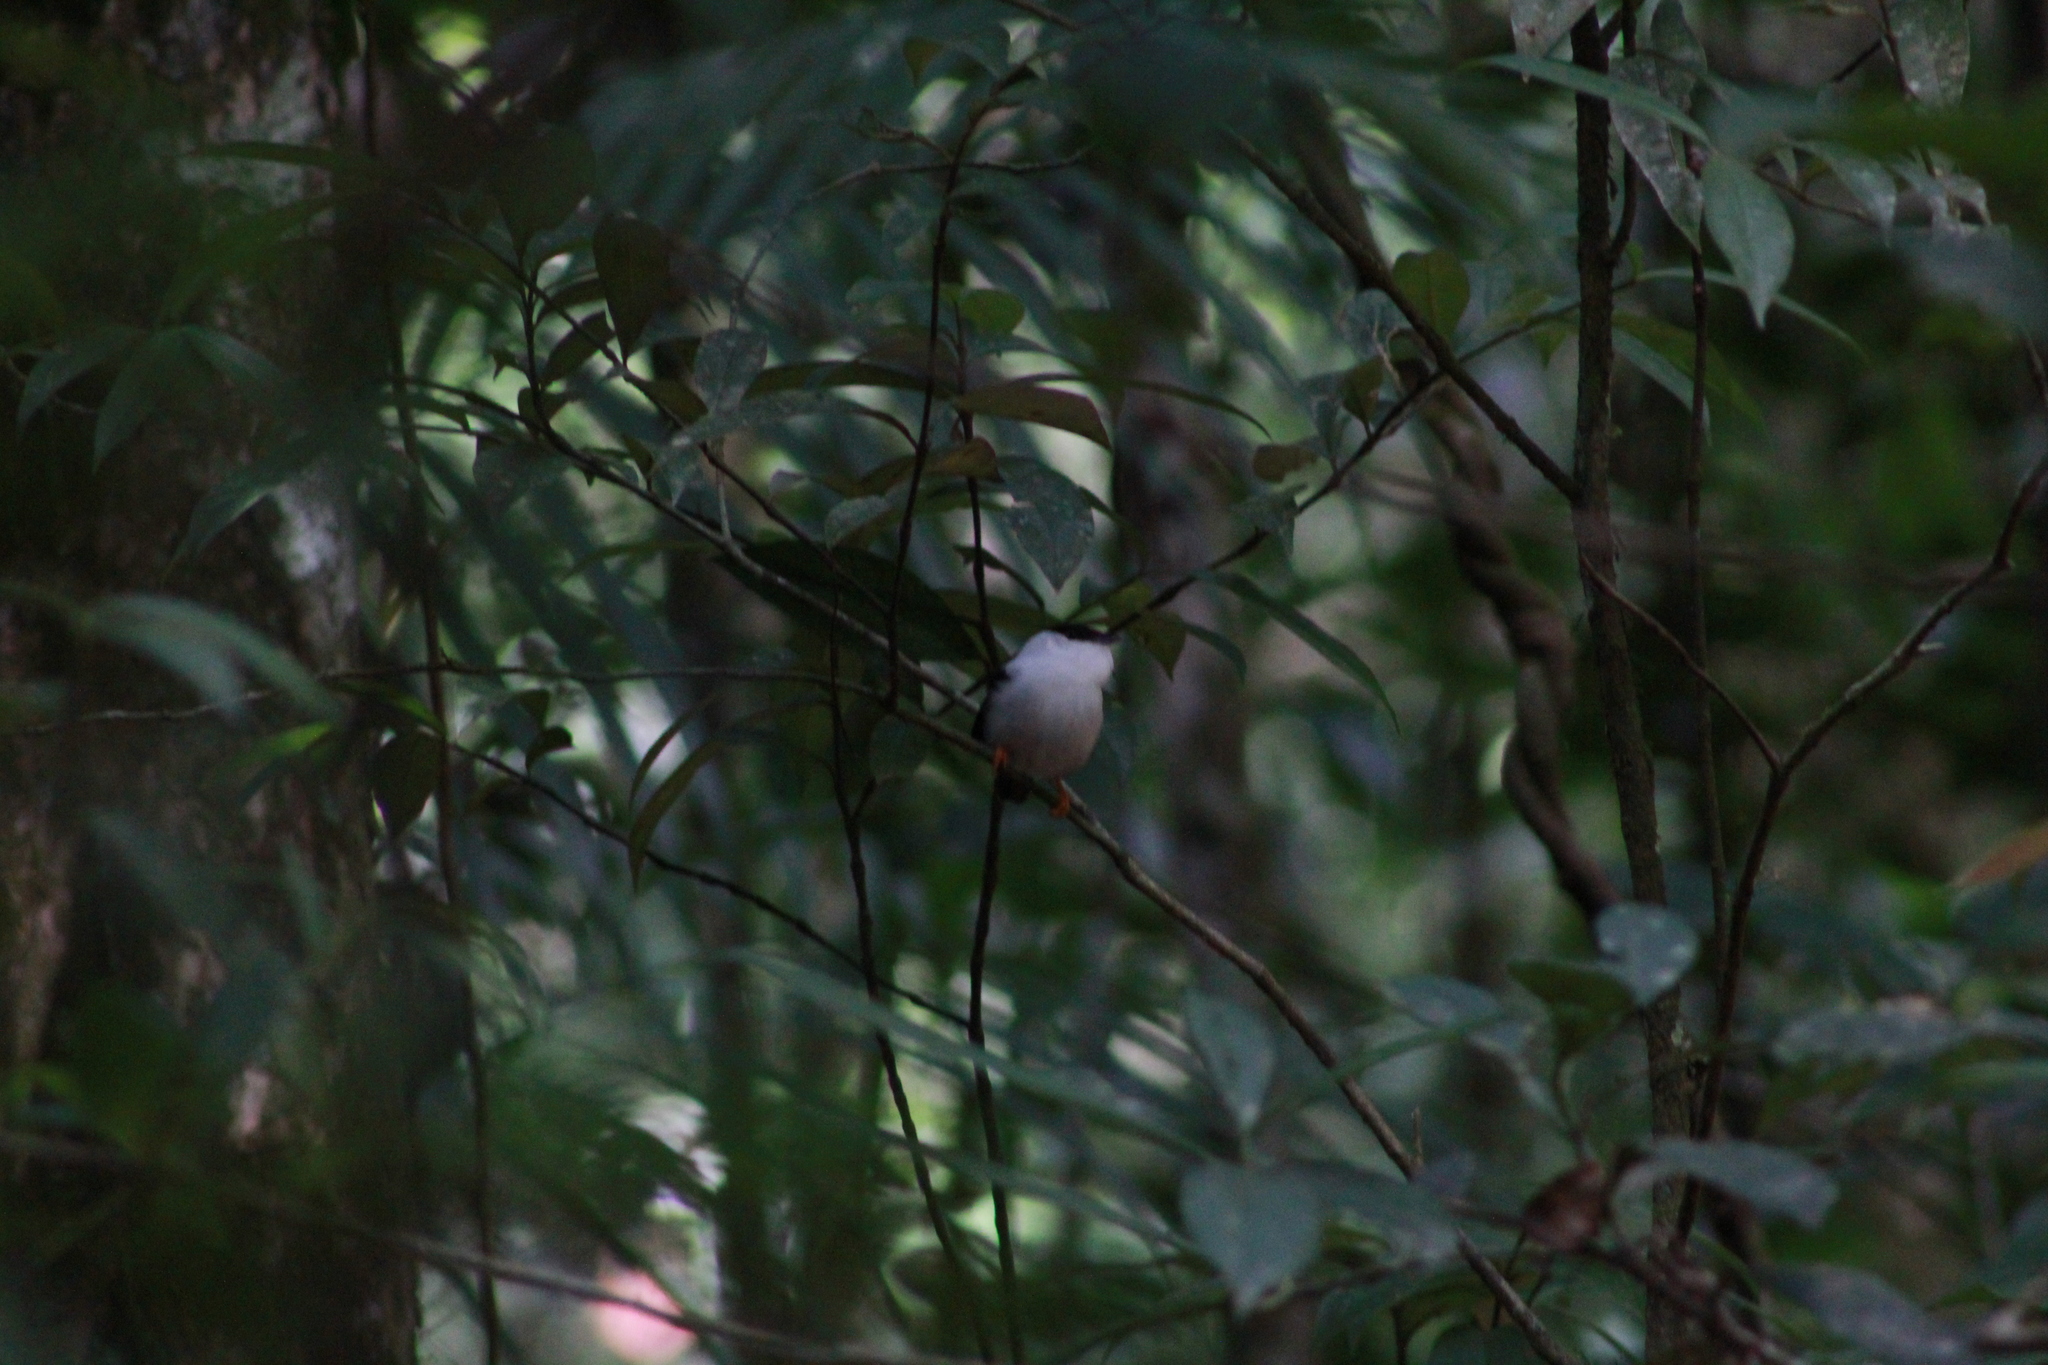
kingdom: Animalia
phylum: Chordata
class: Aves
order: Passeriformes
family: Pipridae
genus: Manacus
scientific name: Manacus manacus
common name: White-bearded manakin
